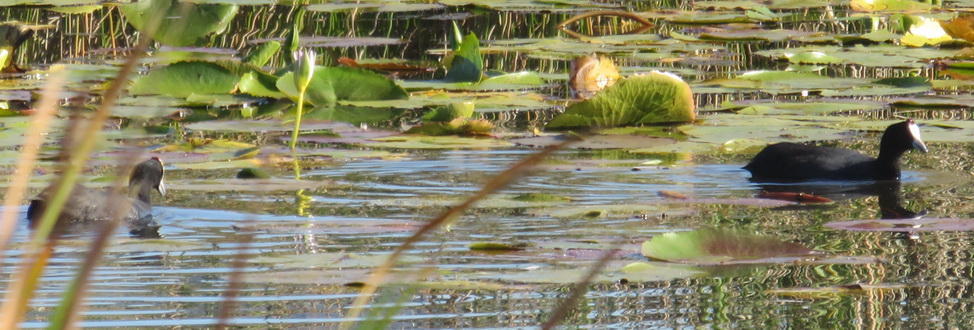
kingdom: Animalia
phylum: Chordata
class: Aves
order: Gruiformes
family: Rallidae
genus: Fulica
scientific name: Fulica cristata
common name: Red-knobbed coot
